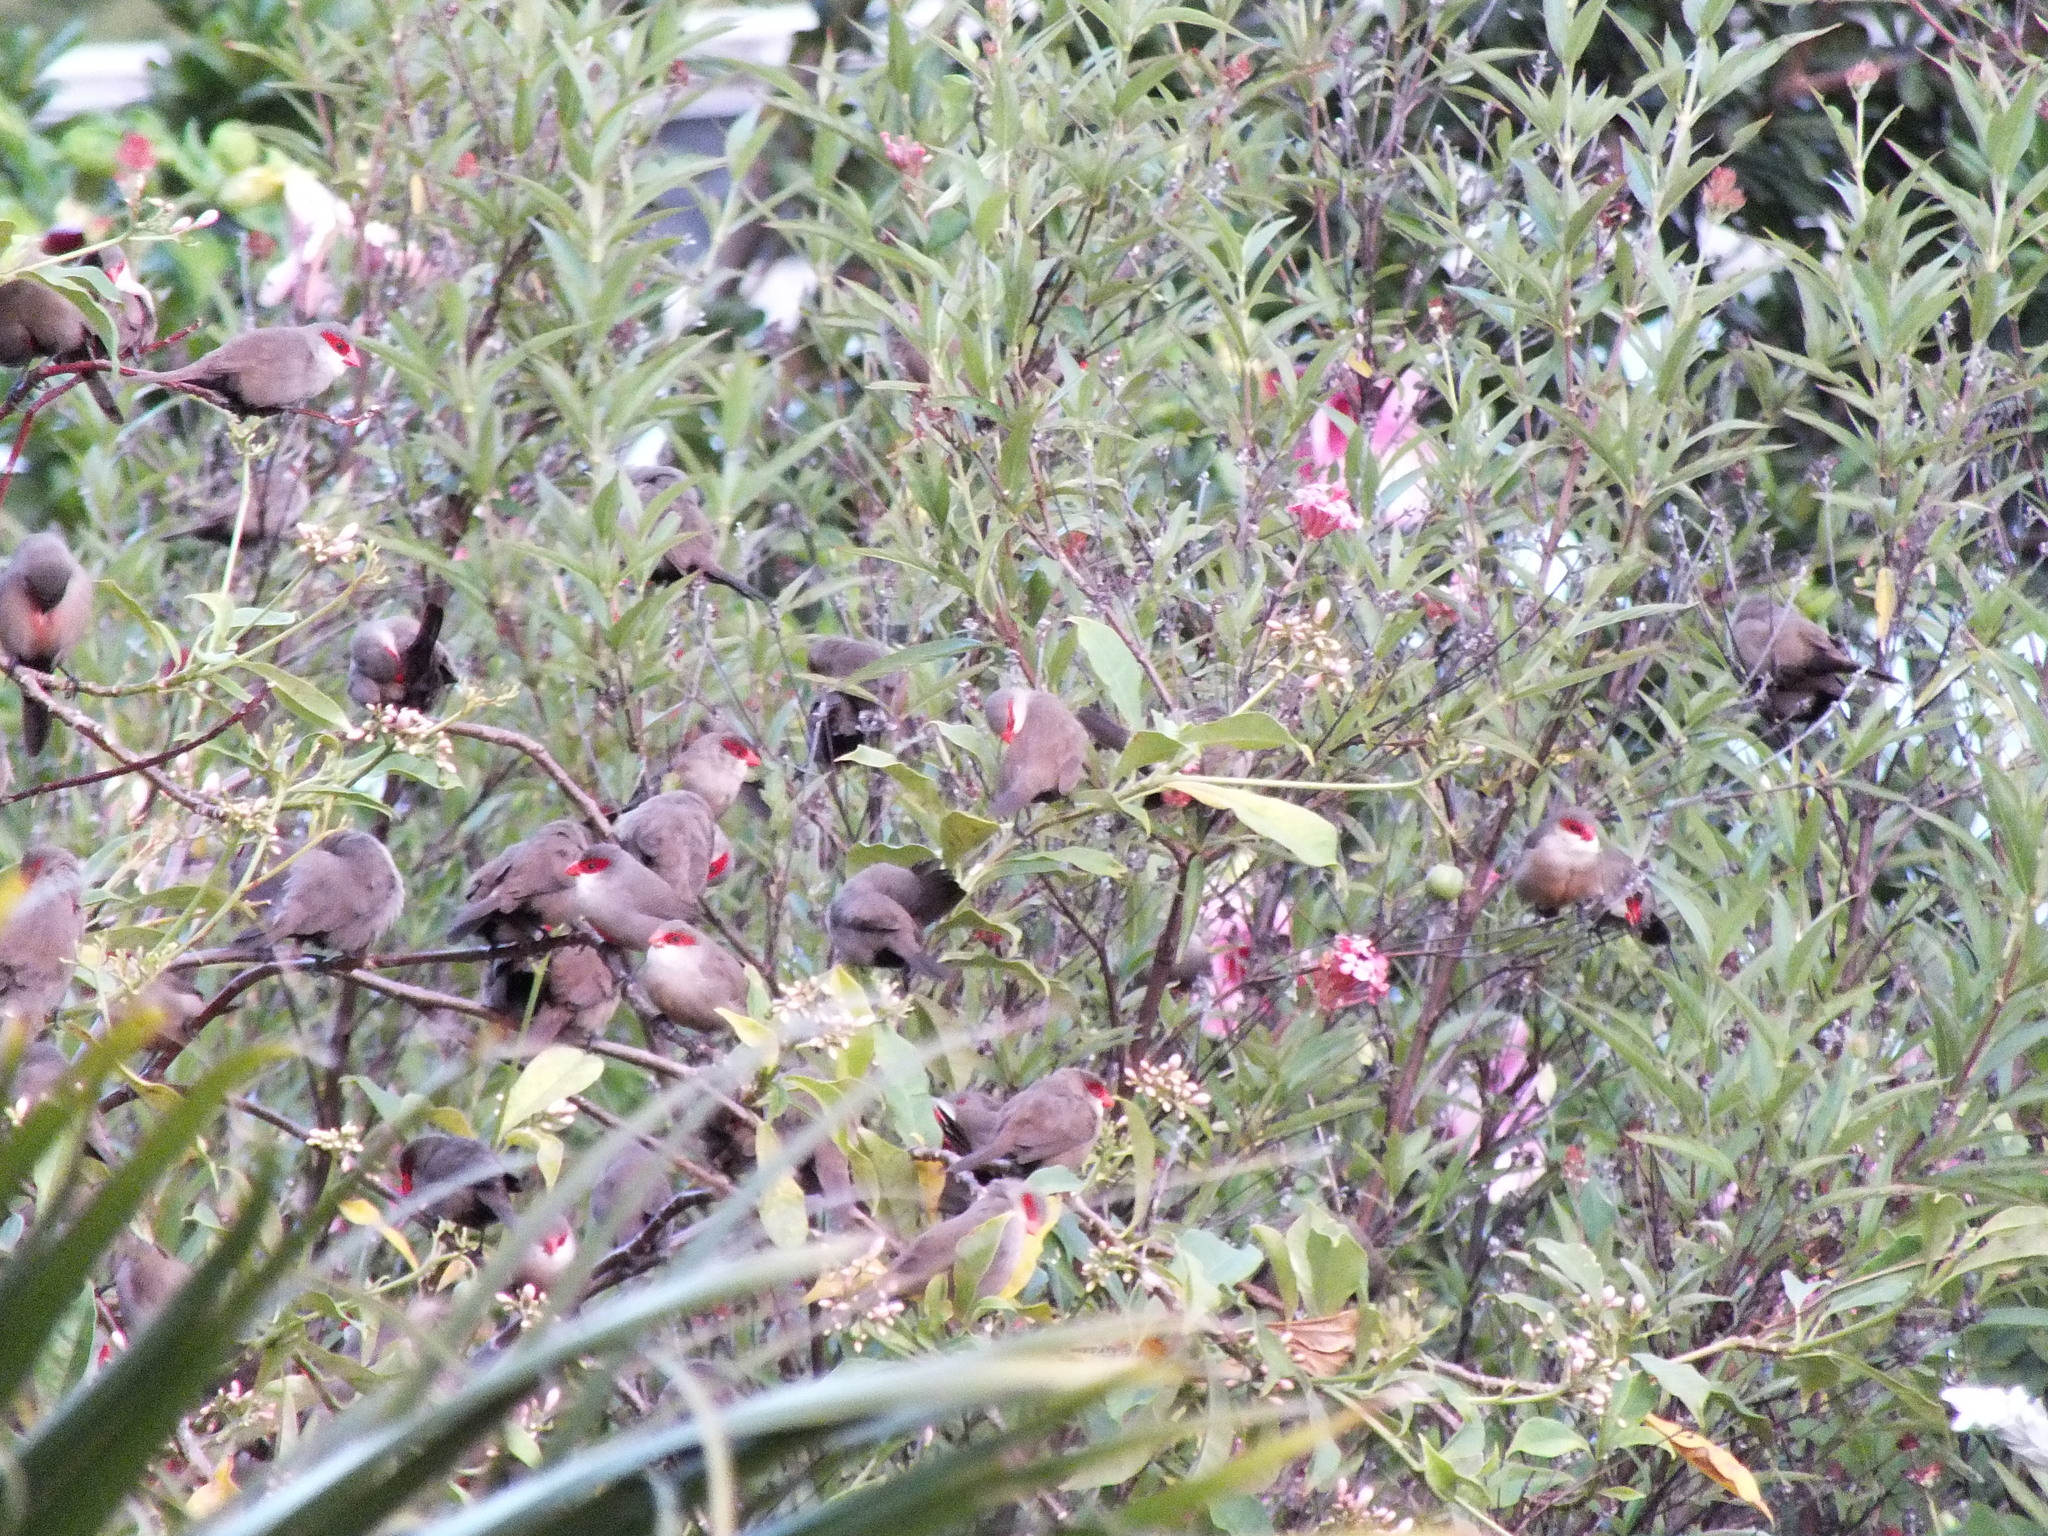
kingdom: Animalia
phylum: Chordata
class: Aves
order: Passeriformes
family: Estrildidae
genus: Estrilda
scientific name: Estrilda astrild
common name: Common waxbill
